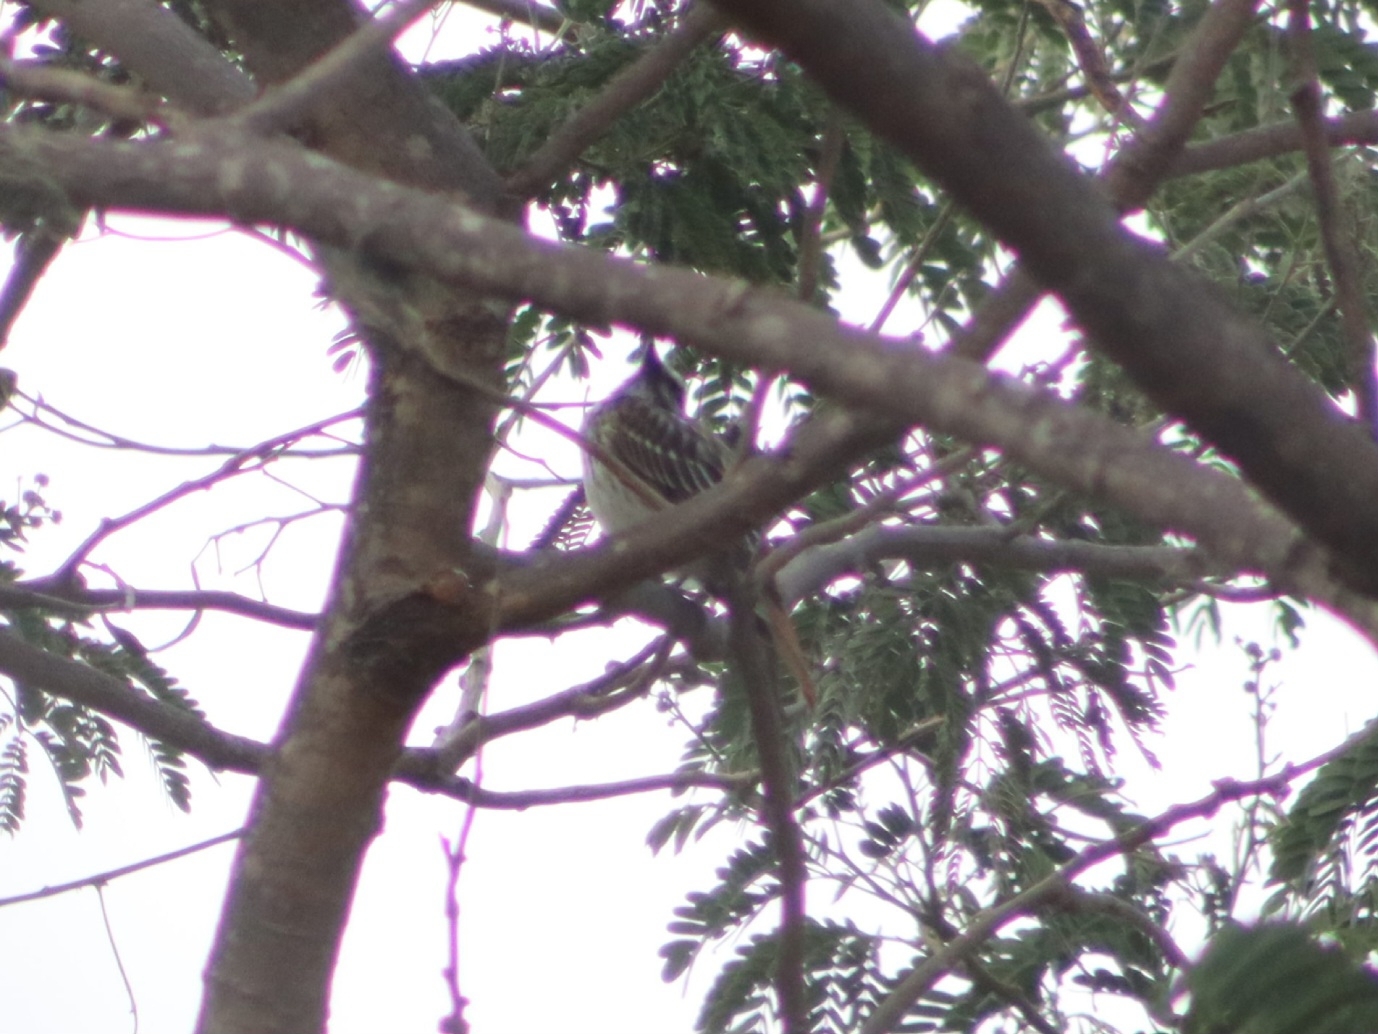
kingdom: Animalia
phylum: Chordata
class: Aves
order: Passeriformes
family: Tyrannidae
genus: Myiodynastes
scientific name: Myiodynastes luteiventris
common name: Sulphur-bellied flycatcher
